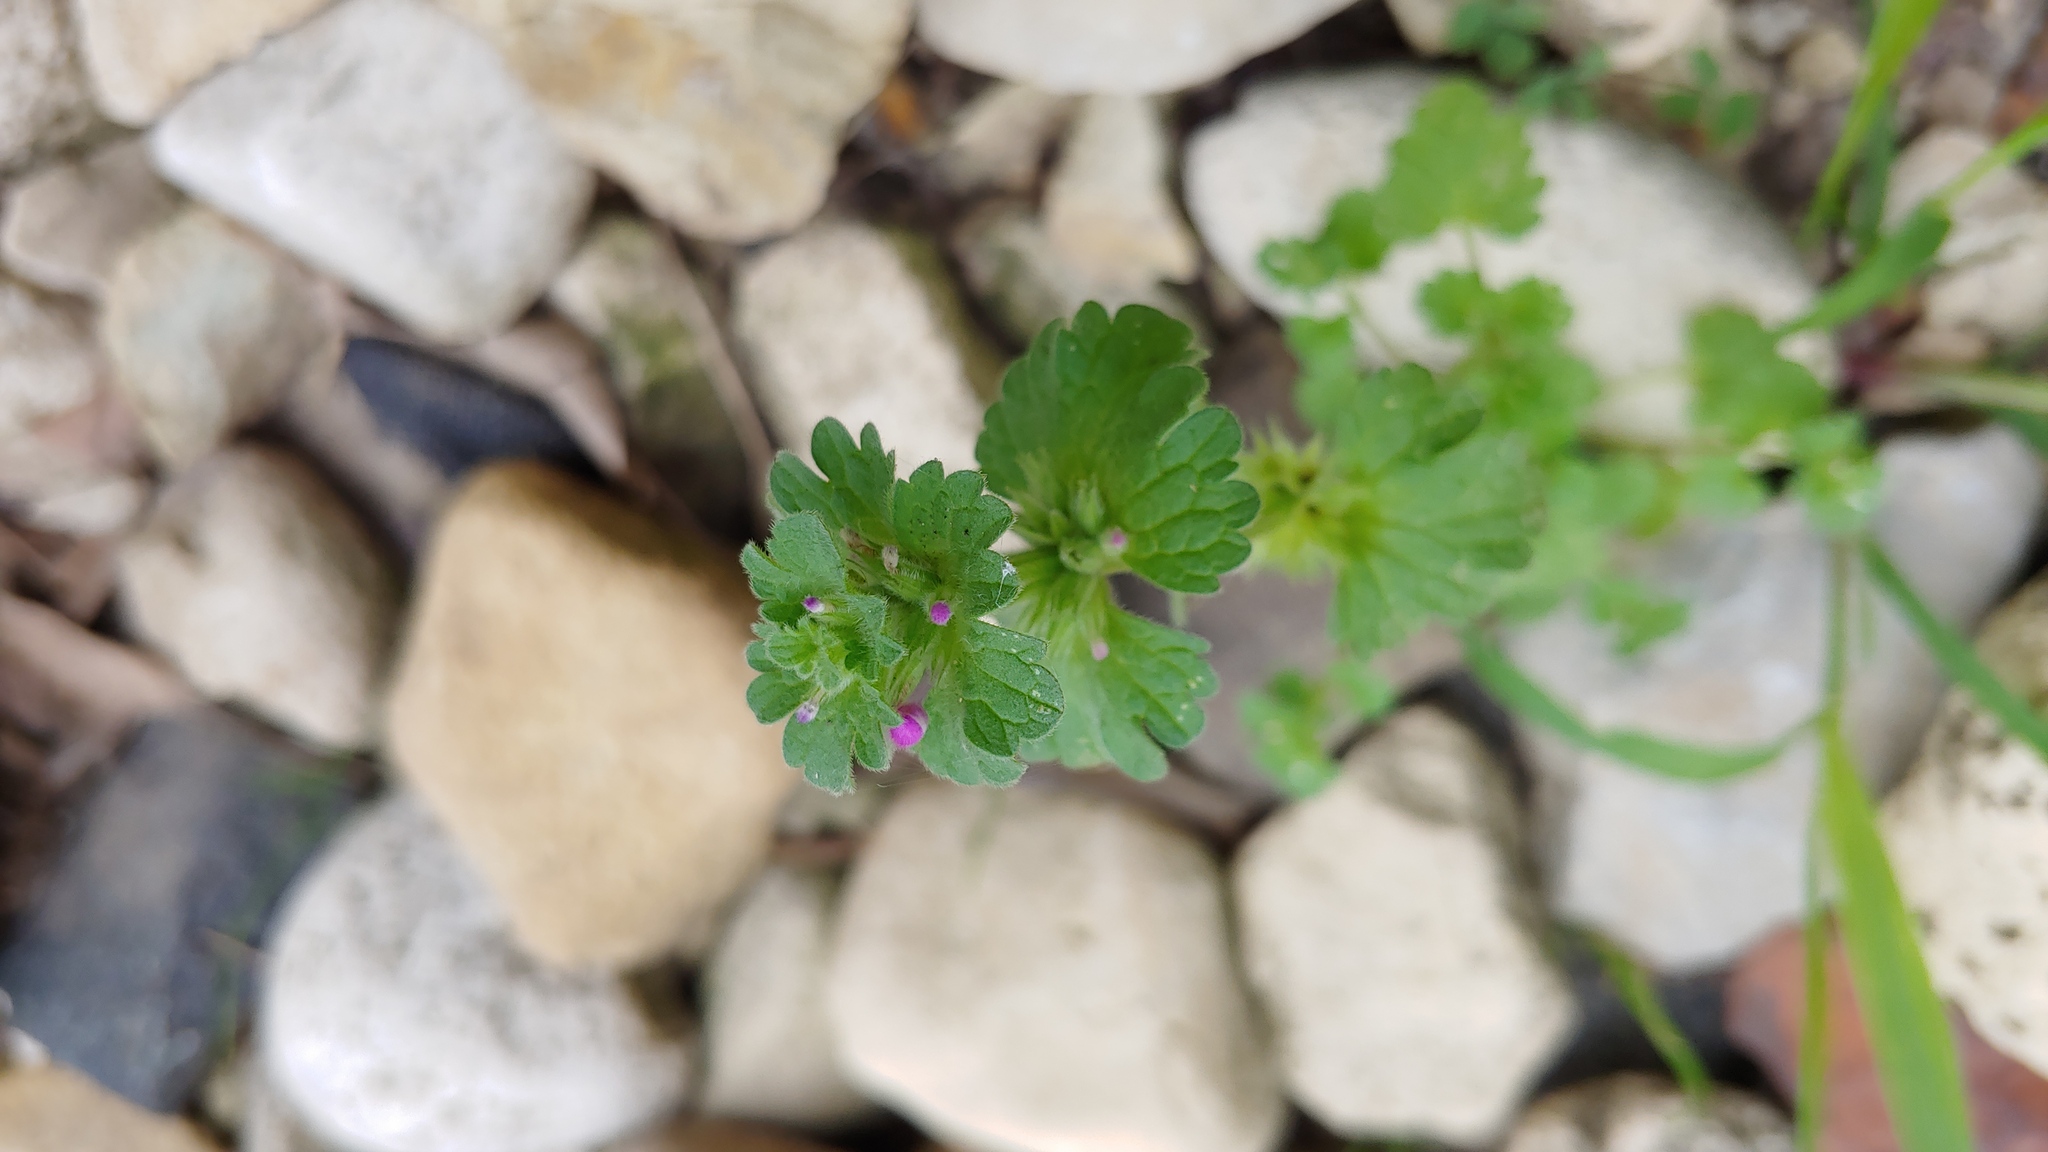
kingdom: Plantae
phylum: Tracheophyta
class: Magnoliopsida
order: Lamiales
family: Lamiaceae
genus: Lamium
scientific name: Lamium amplexicaule
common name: Henbit dead-nettle
